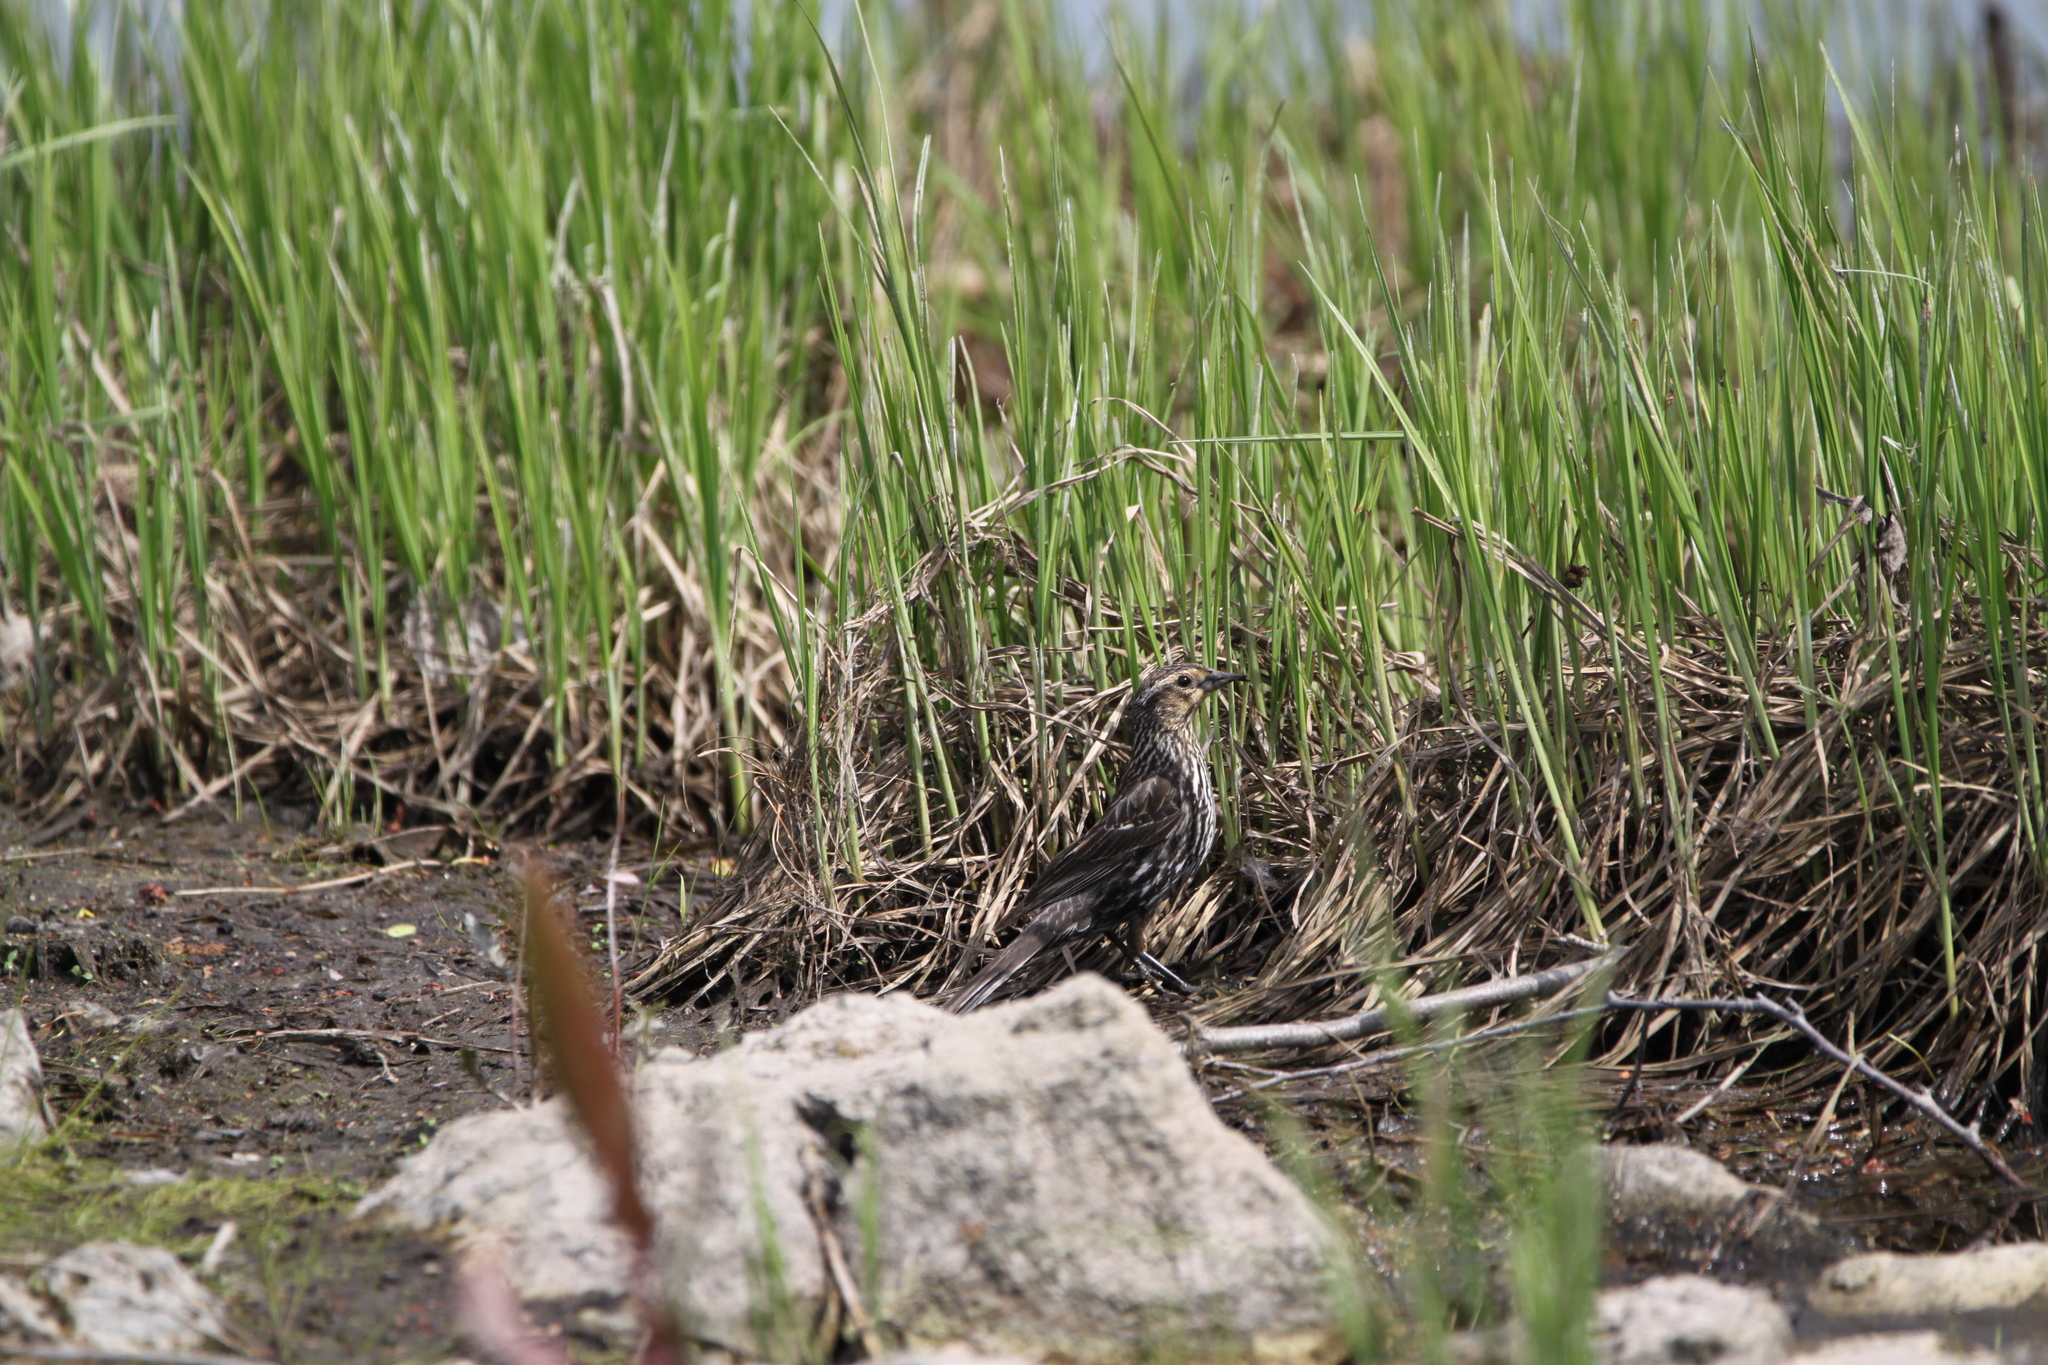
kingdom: Animalia
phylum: Chordata
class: Aves
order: Passeriformes
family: Icteridae
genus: Agelaius
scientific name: Agelaius phoeniceus
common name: Red-winged blackbird
